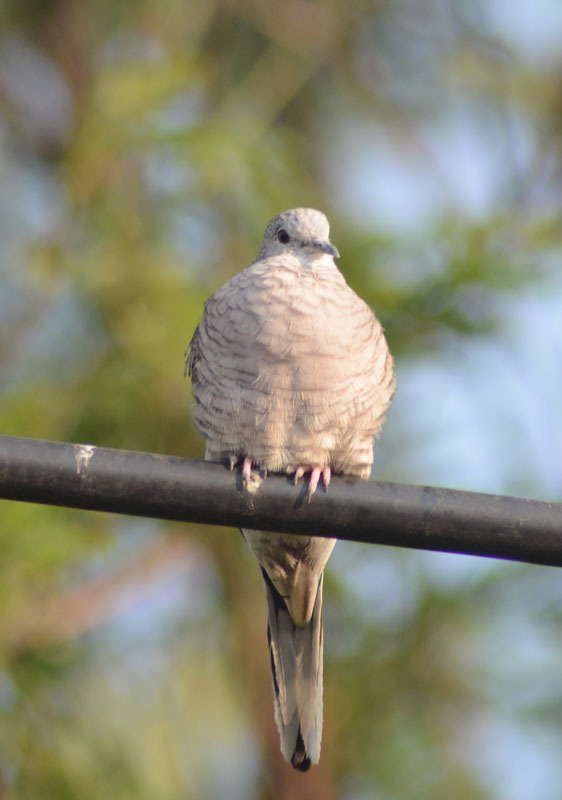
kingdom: Animalia
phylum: Chordata
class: Aves
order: Columbiformes
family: Columbidae
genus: Columbina
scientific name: Columbina inca
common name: Inca dove
